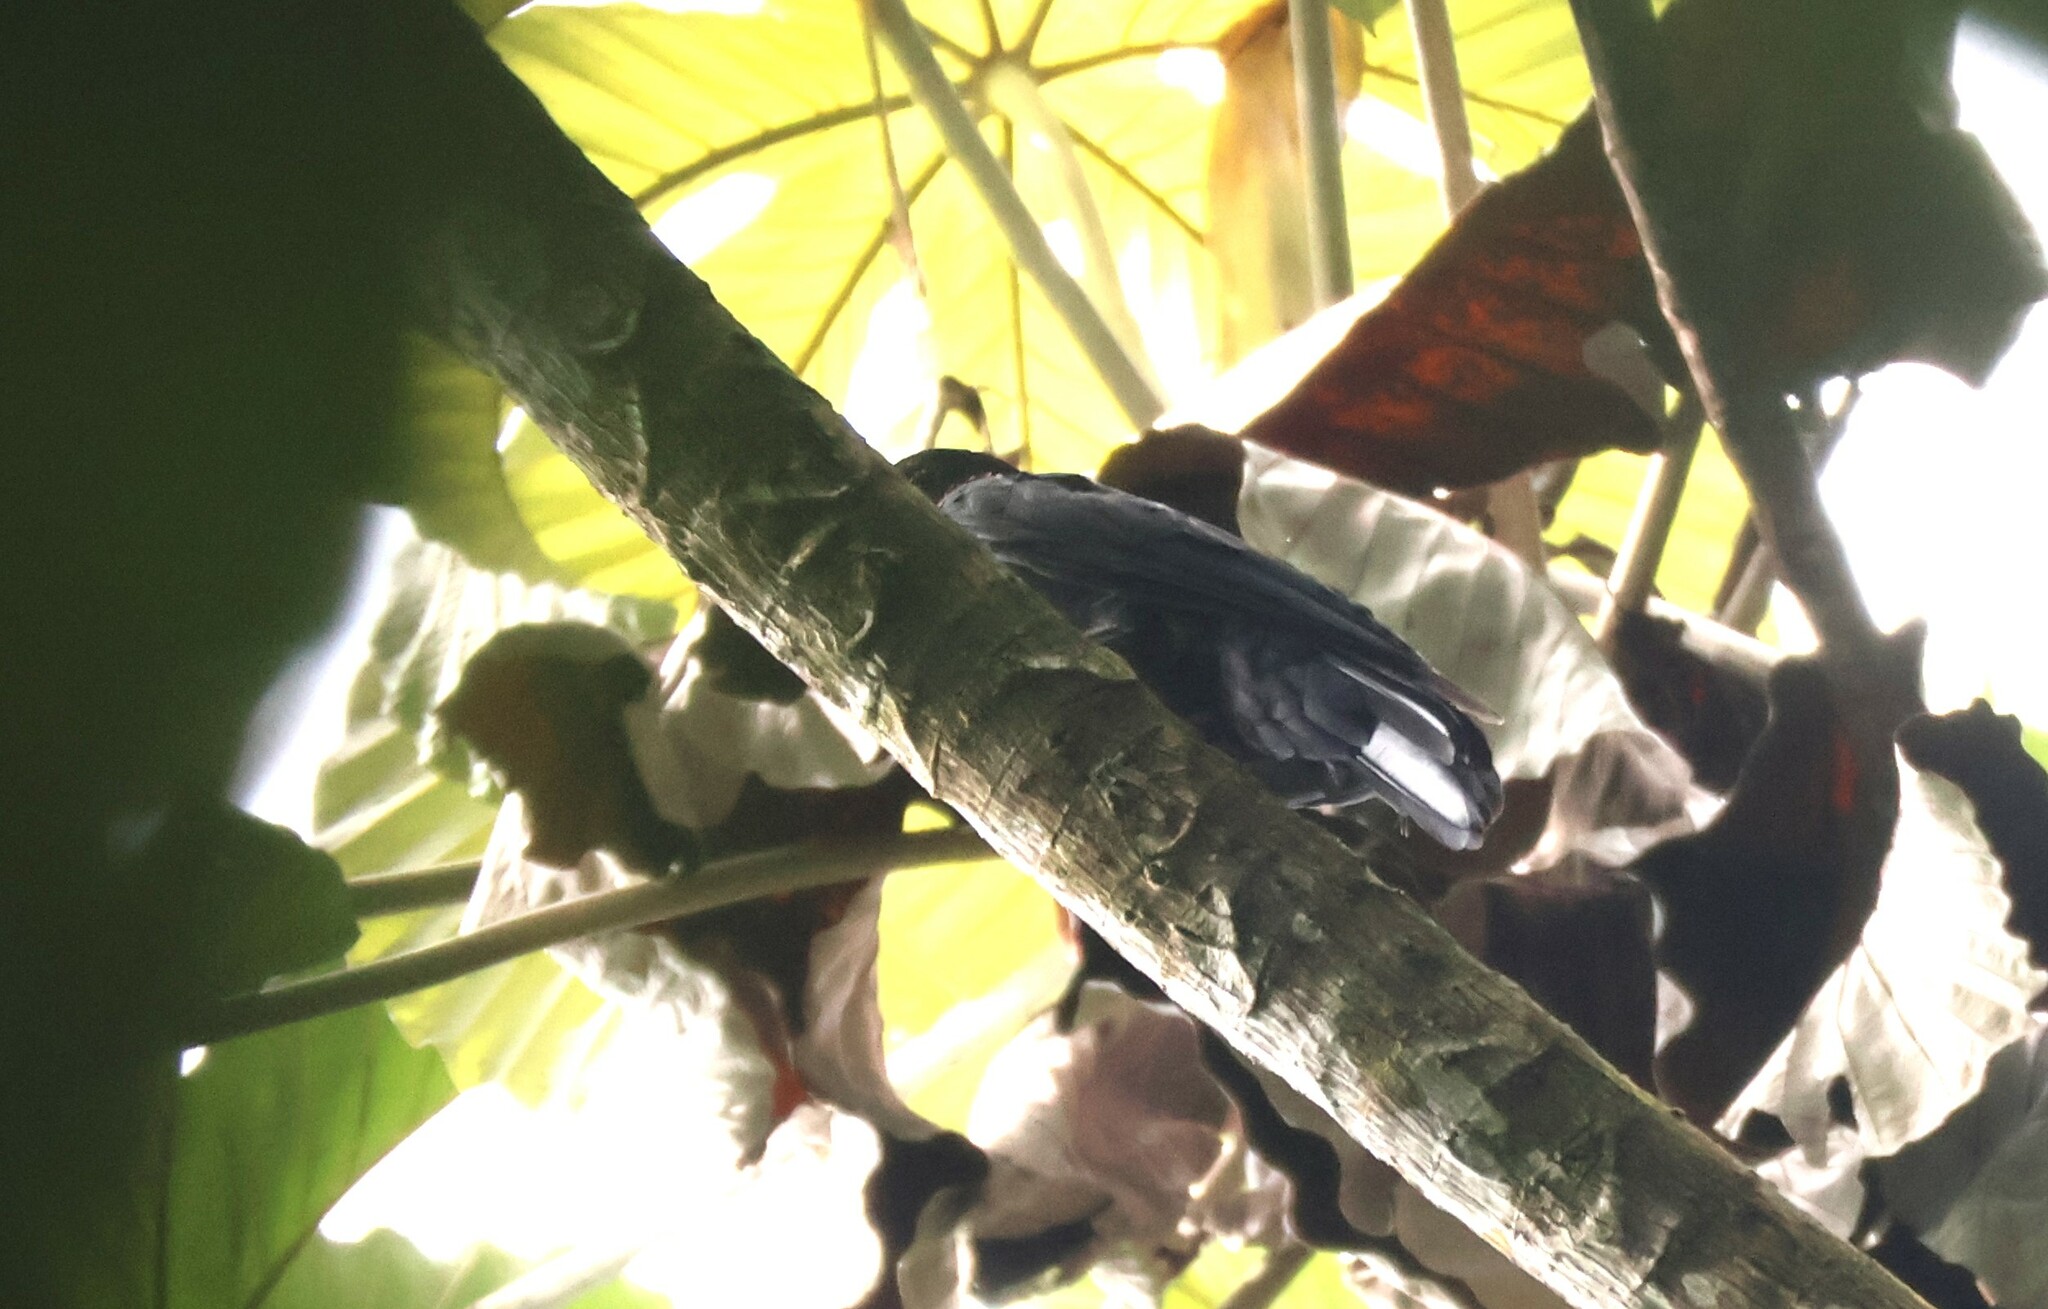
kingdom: Animalia
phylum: Chordata
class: Aves
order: Passeriformes
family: Cotingidae
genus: Querula
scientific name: Querula purpurata
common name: Purple-throated fruitcrow
